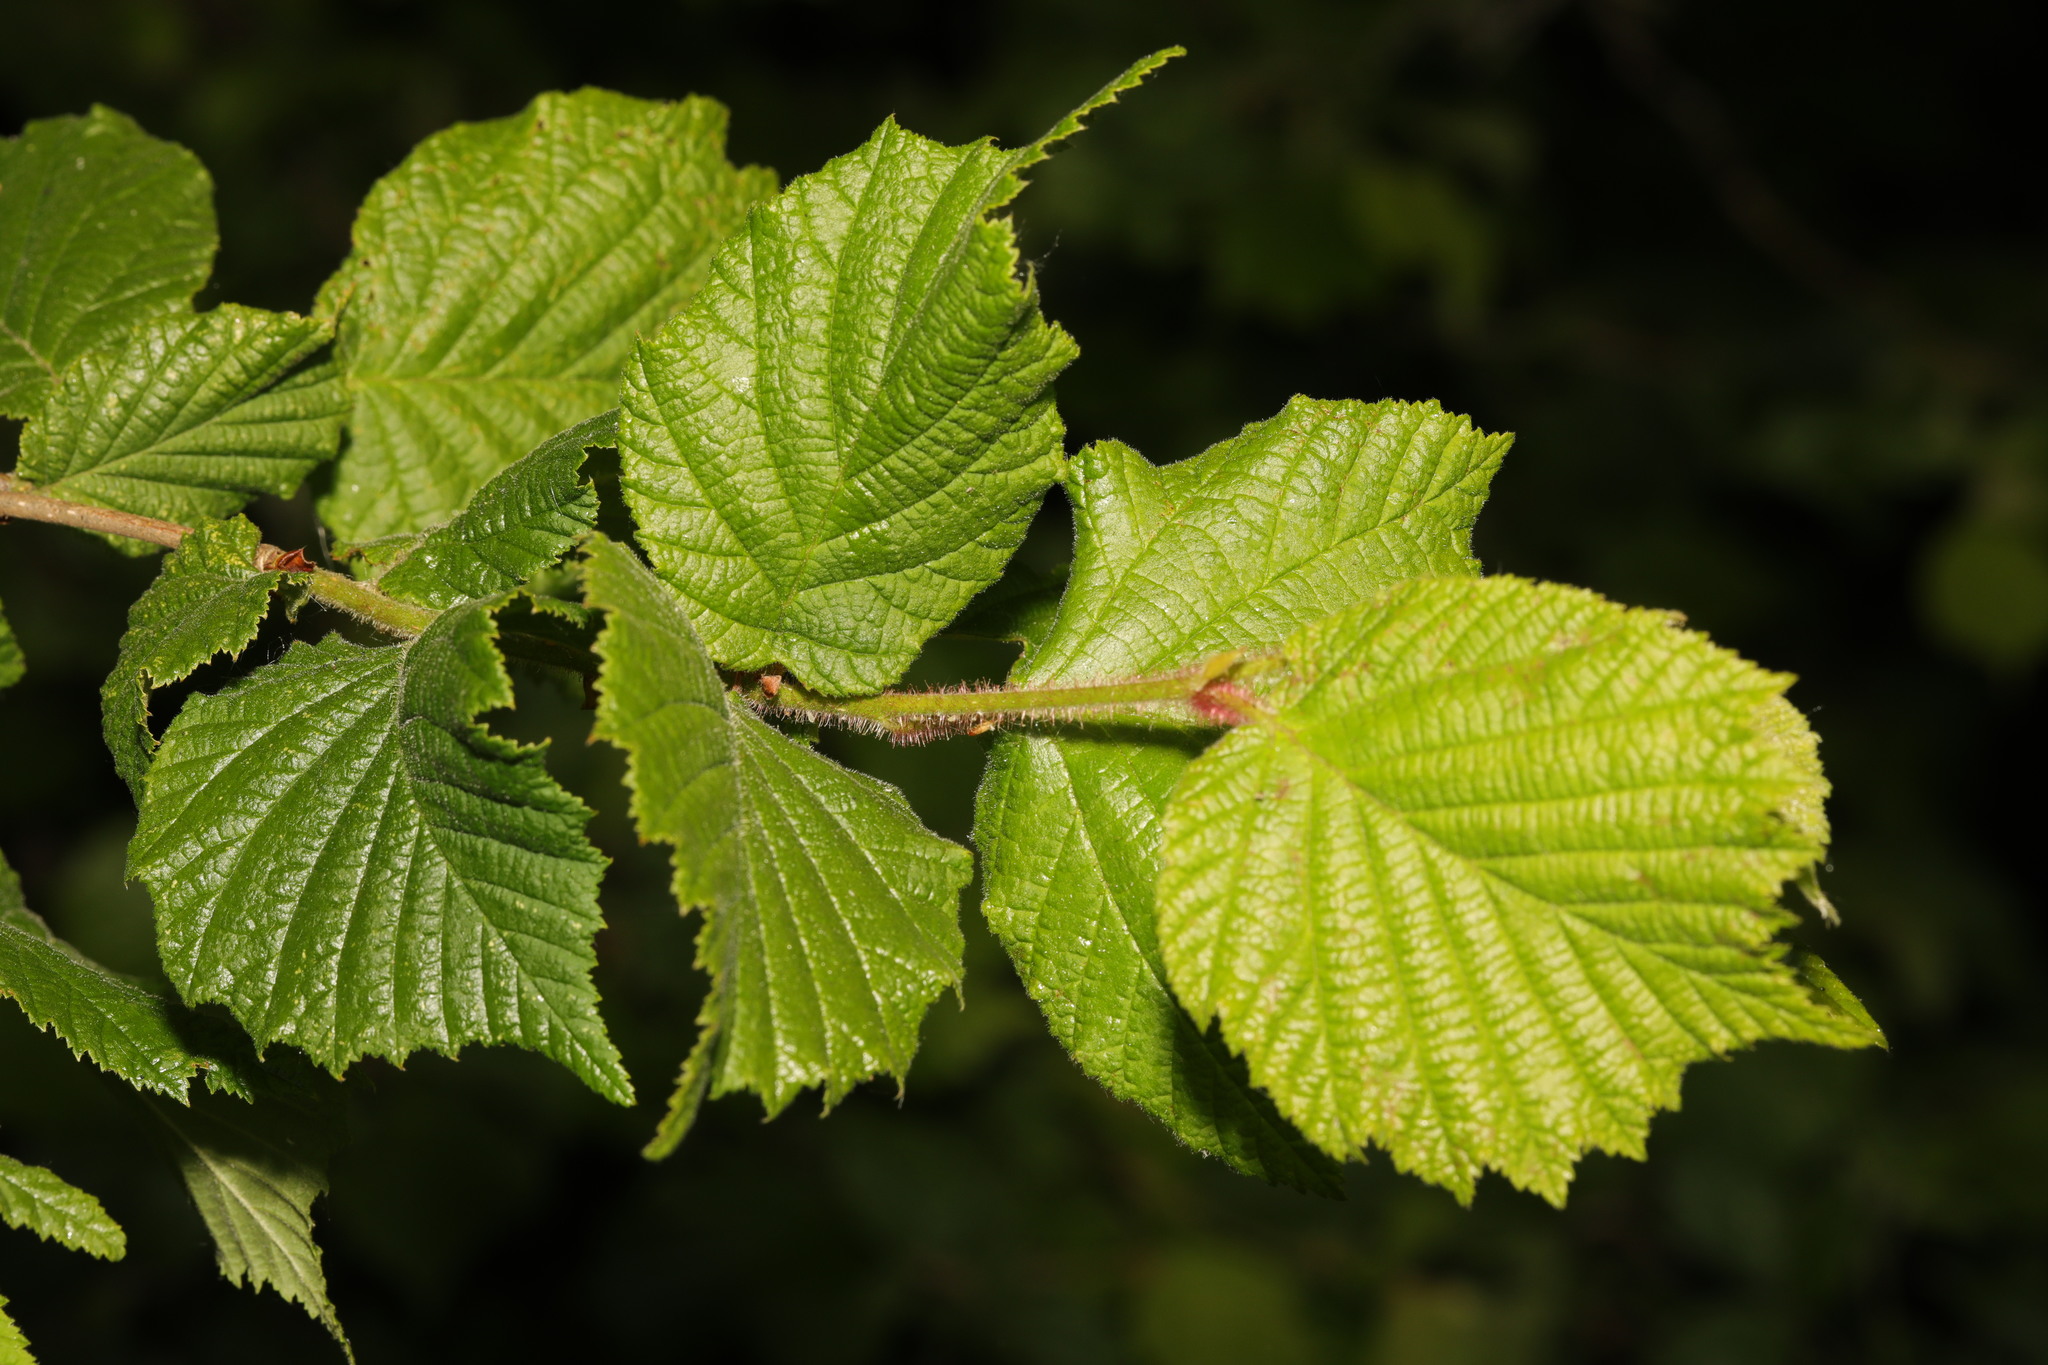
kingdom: Plantae
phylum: Tracheophyta
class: Magnoliopsida
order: Fagales
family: Betulaceae
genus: Corylus
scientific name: Corylus avellana
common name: European hazel
